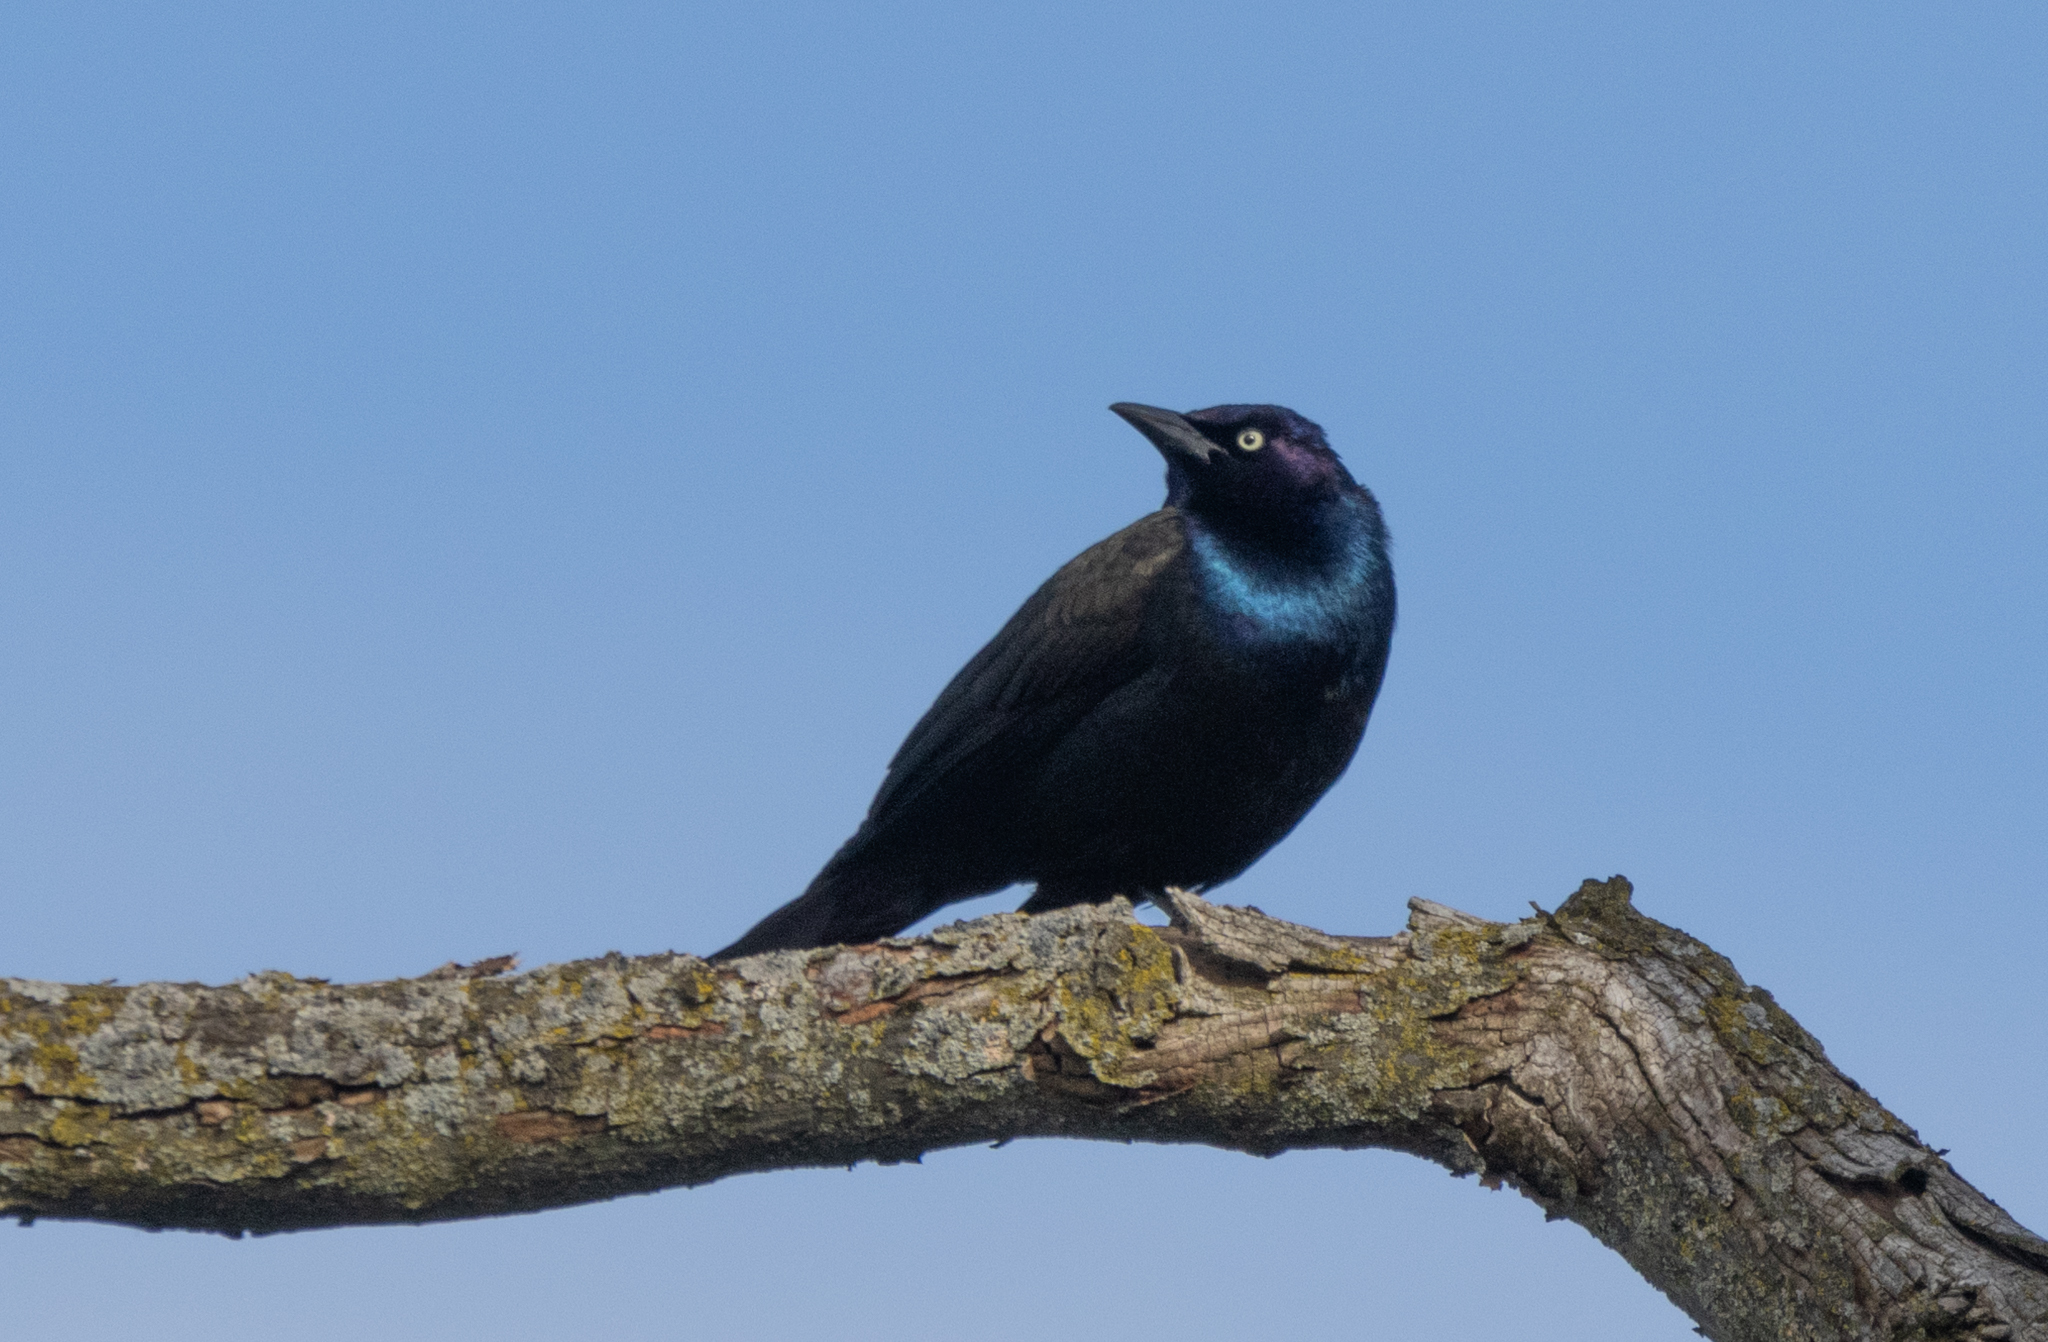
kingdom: Animalia
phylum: Chordata
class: Aves
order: Passeriformes
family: Icteridae
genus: Quiscalus
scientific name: Quiscalus quiscula
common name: Common grackle
